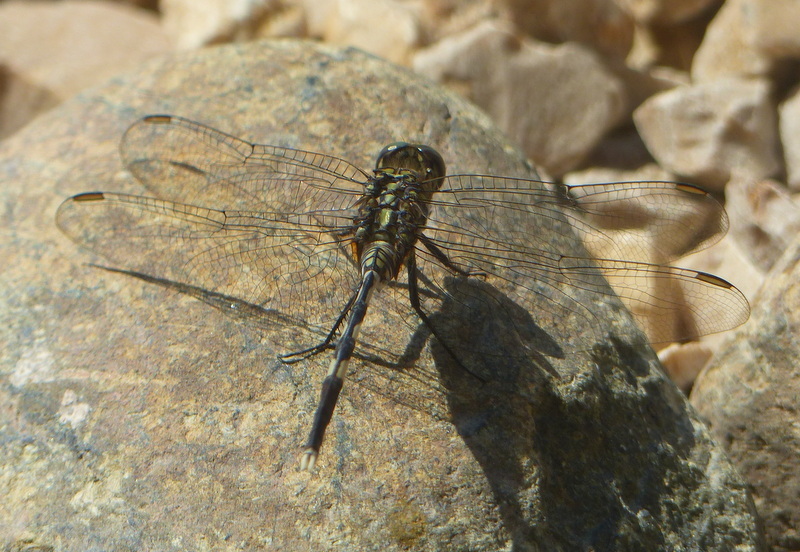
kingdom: Animalia
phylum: Arthropoda
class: Insecta
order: Odonata
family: Libellulidae
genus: Orthetrum
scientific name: Orthetrum sabina
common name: Slender skimmer
